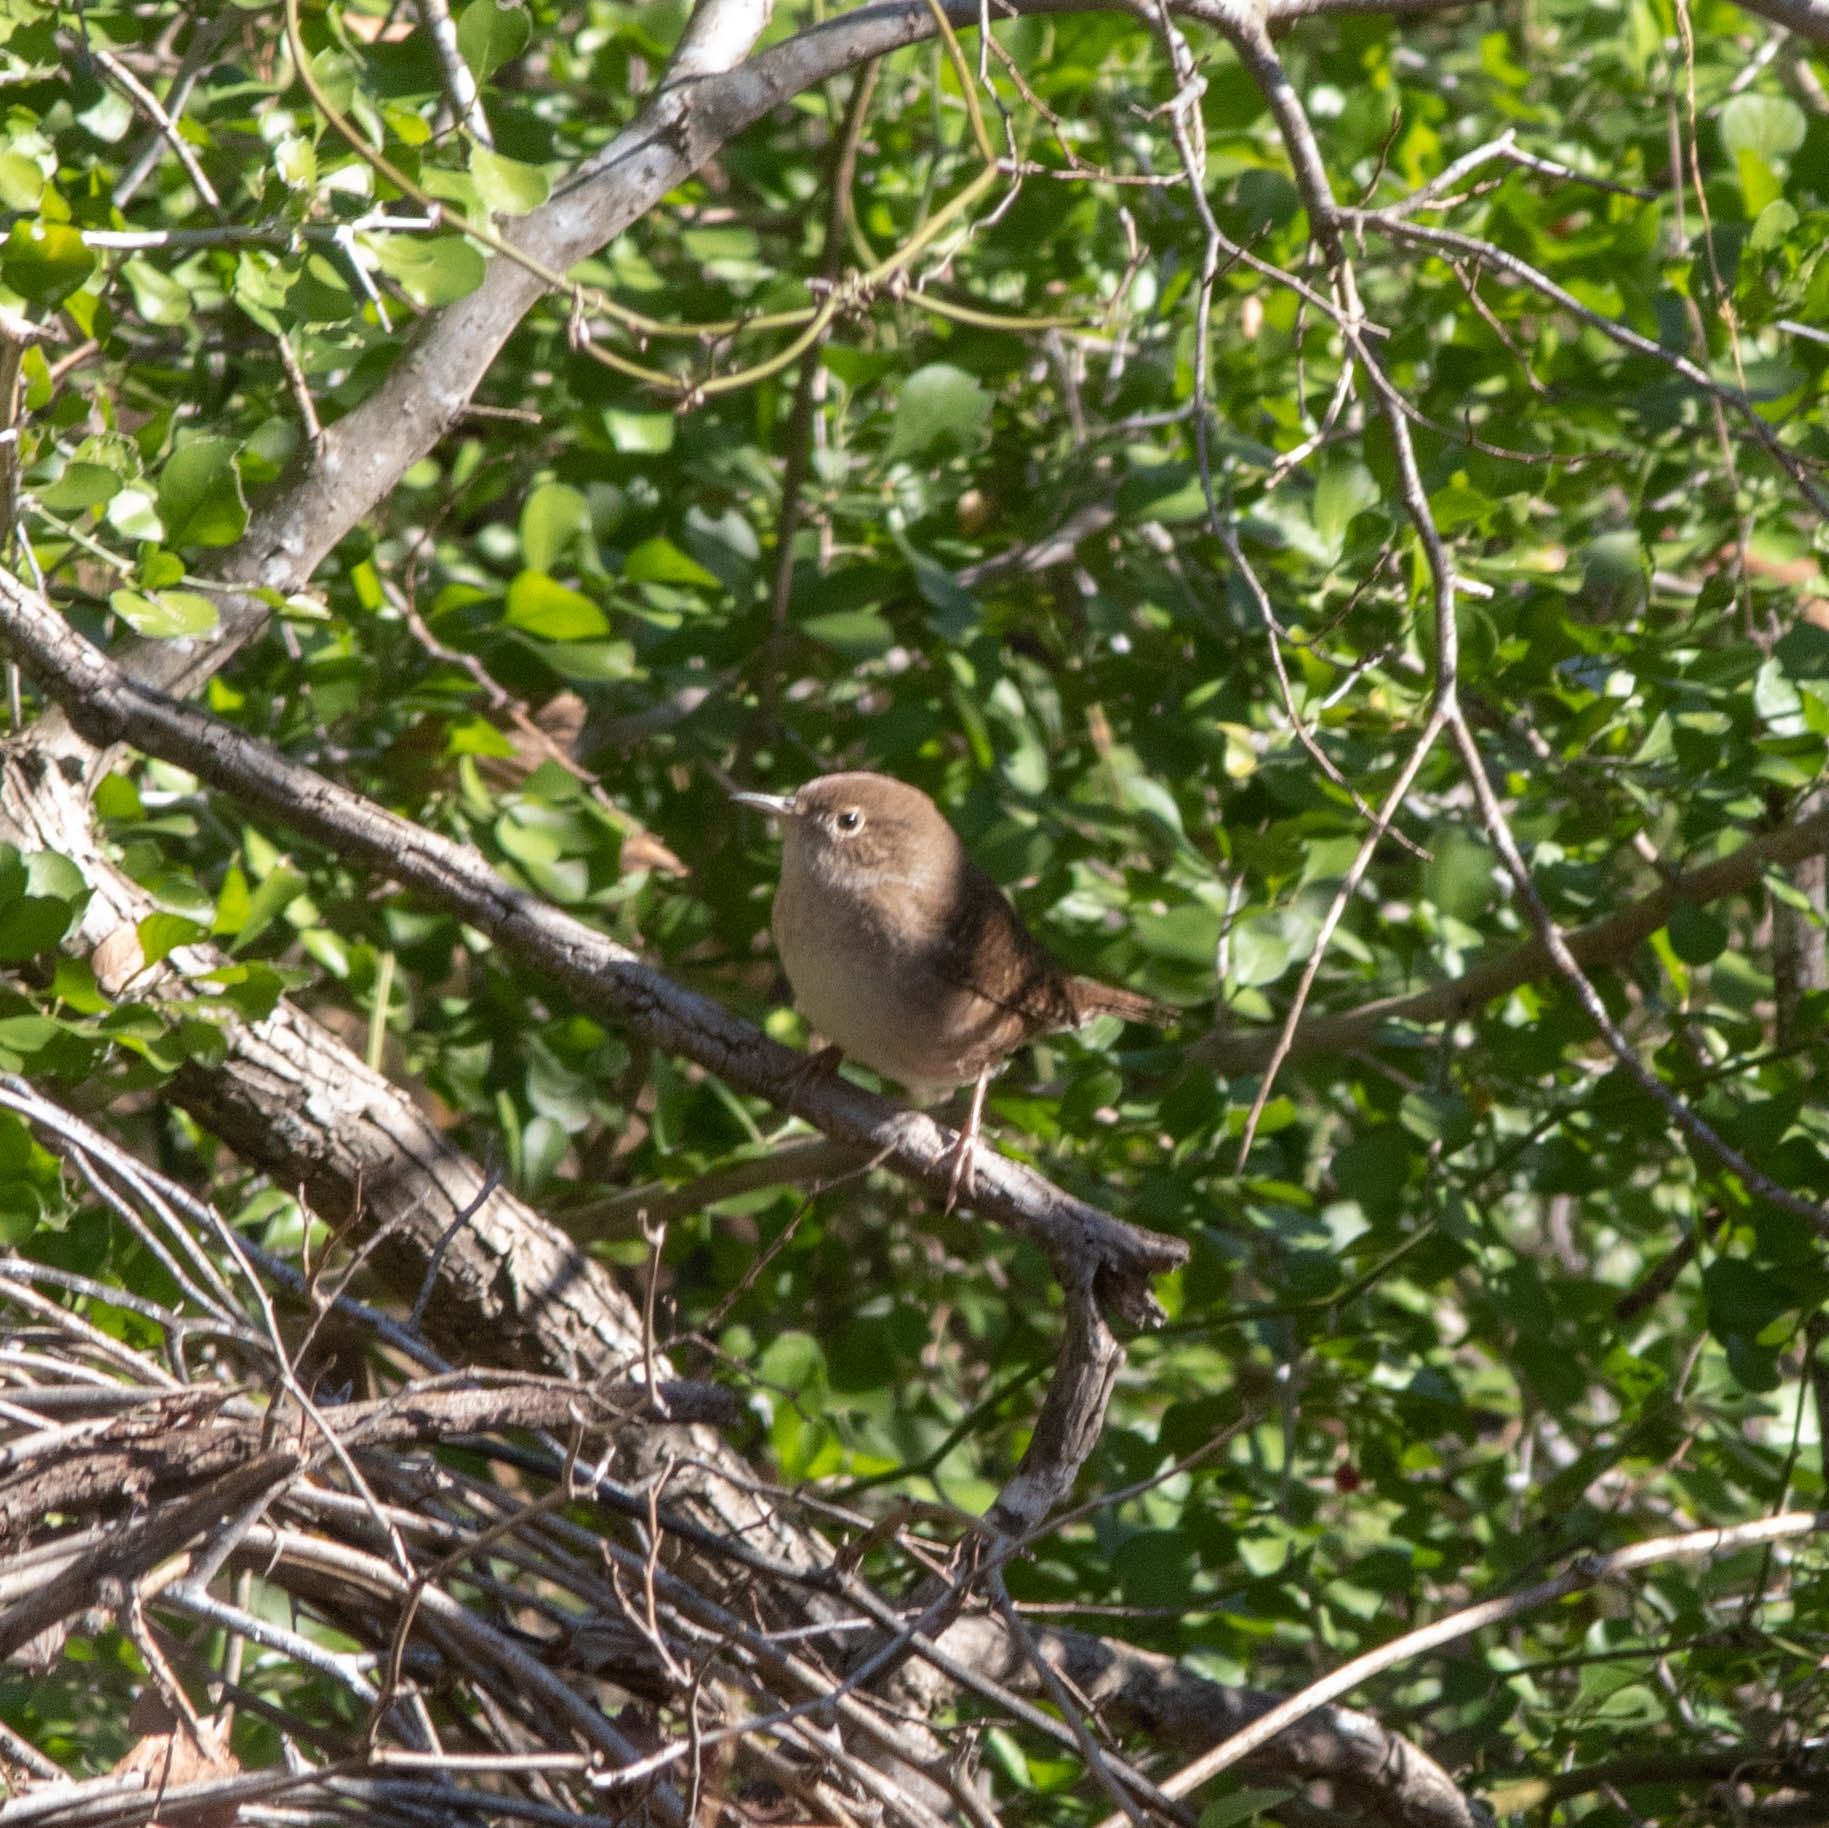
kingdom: Animalia
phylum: Chordata
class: Aves
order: Passeriformes
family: Troglodytidae
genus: Troglodytes
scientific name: Troglodytes aedon
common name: House wren
